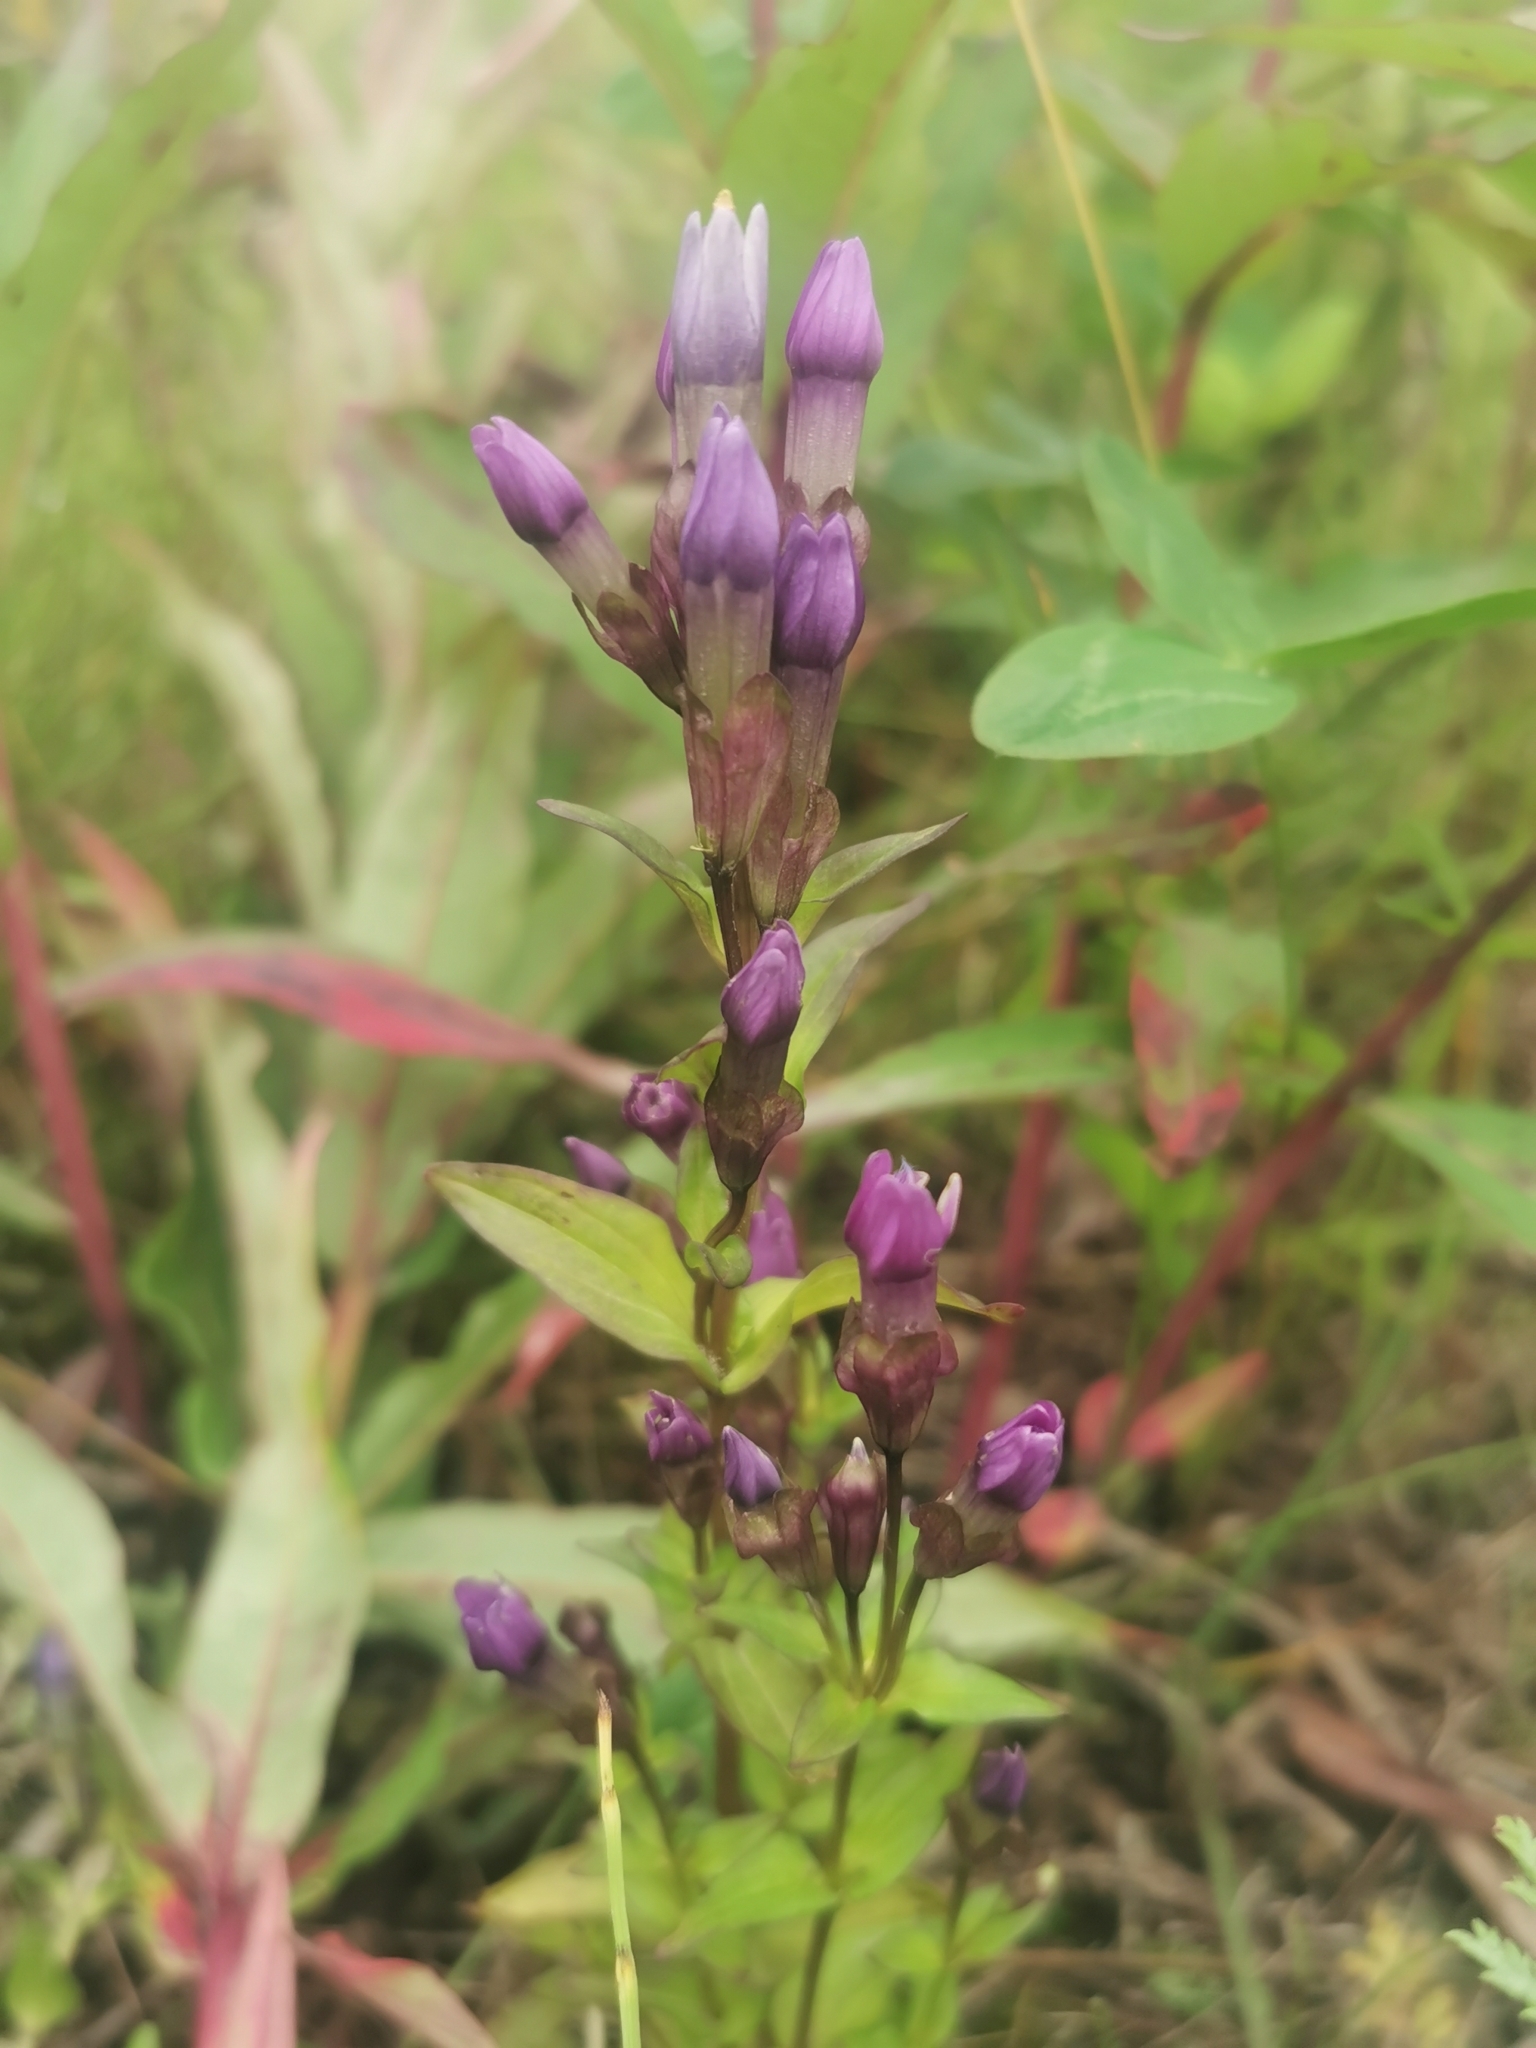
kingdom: Plantae
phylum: Tracheophyta
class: Magnoliopsida
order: Gentianales
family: Gentianaceae
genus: Gentianella
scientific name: Gentianella auriculata
